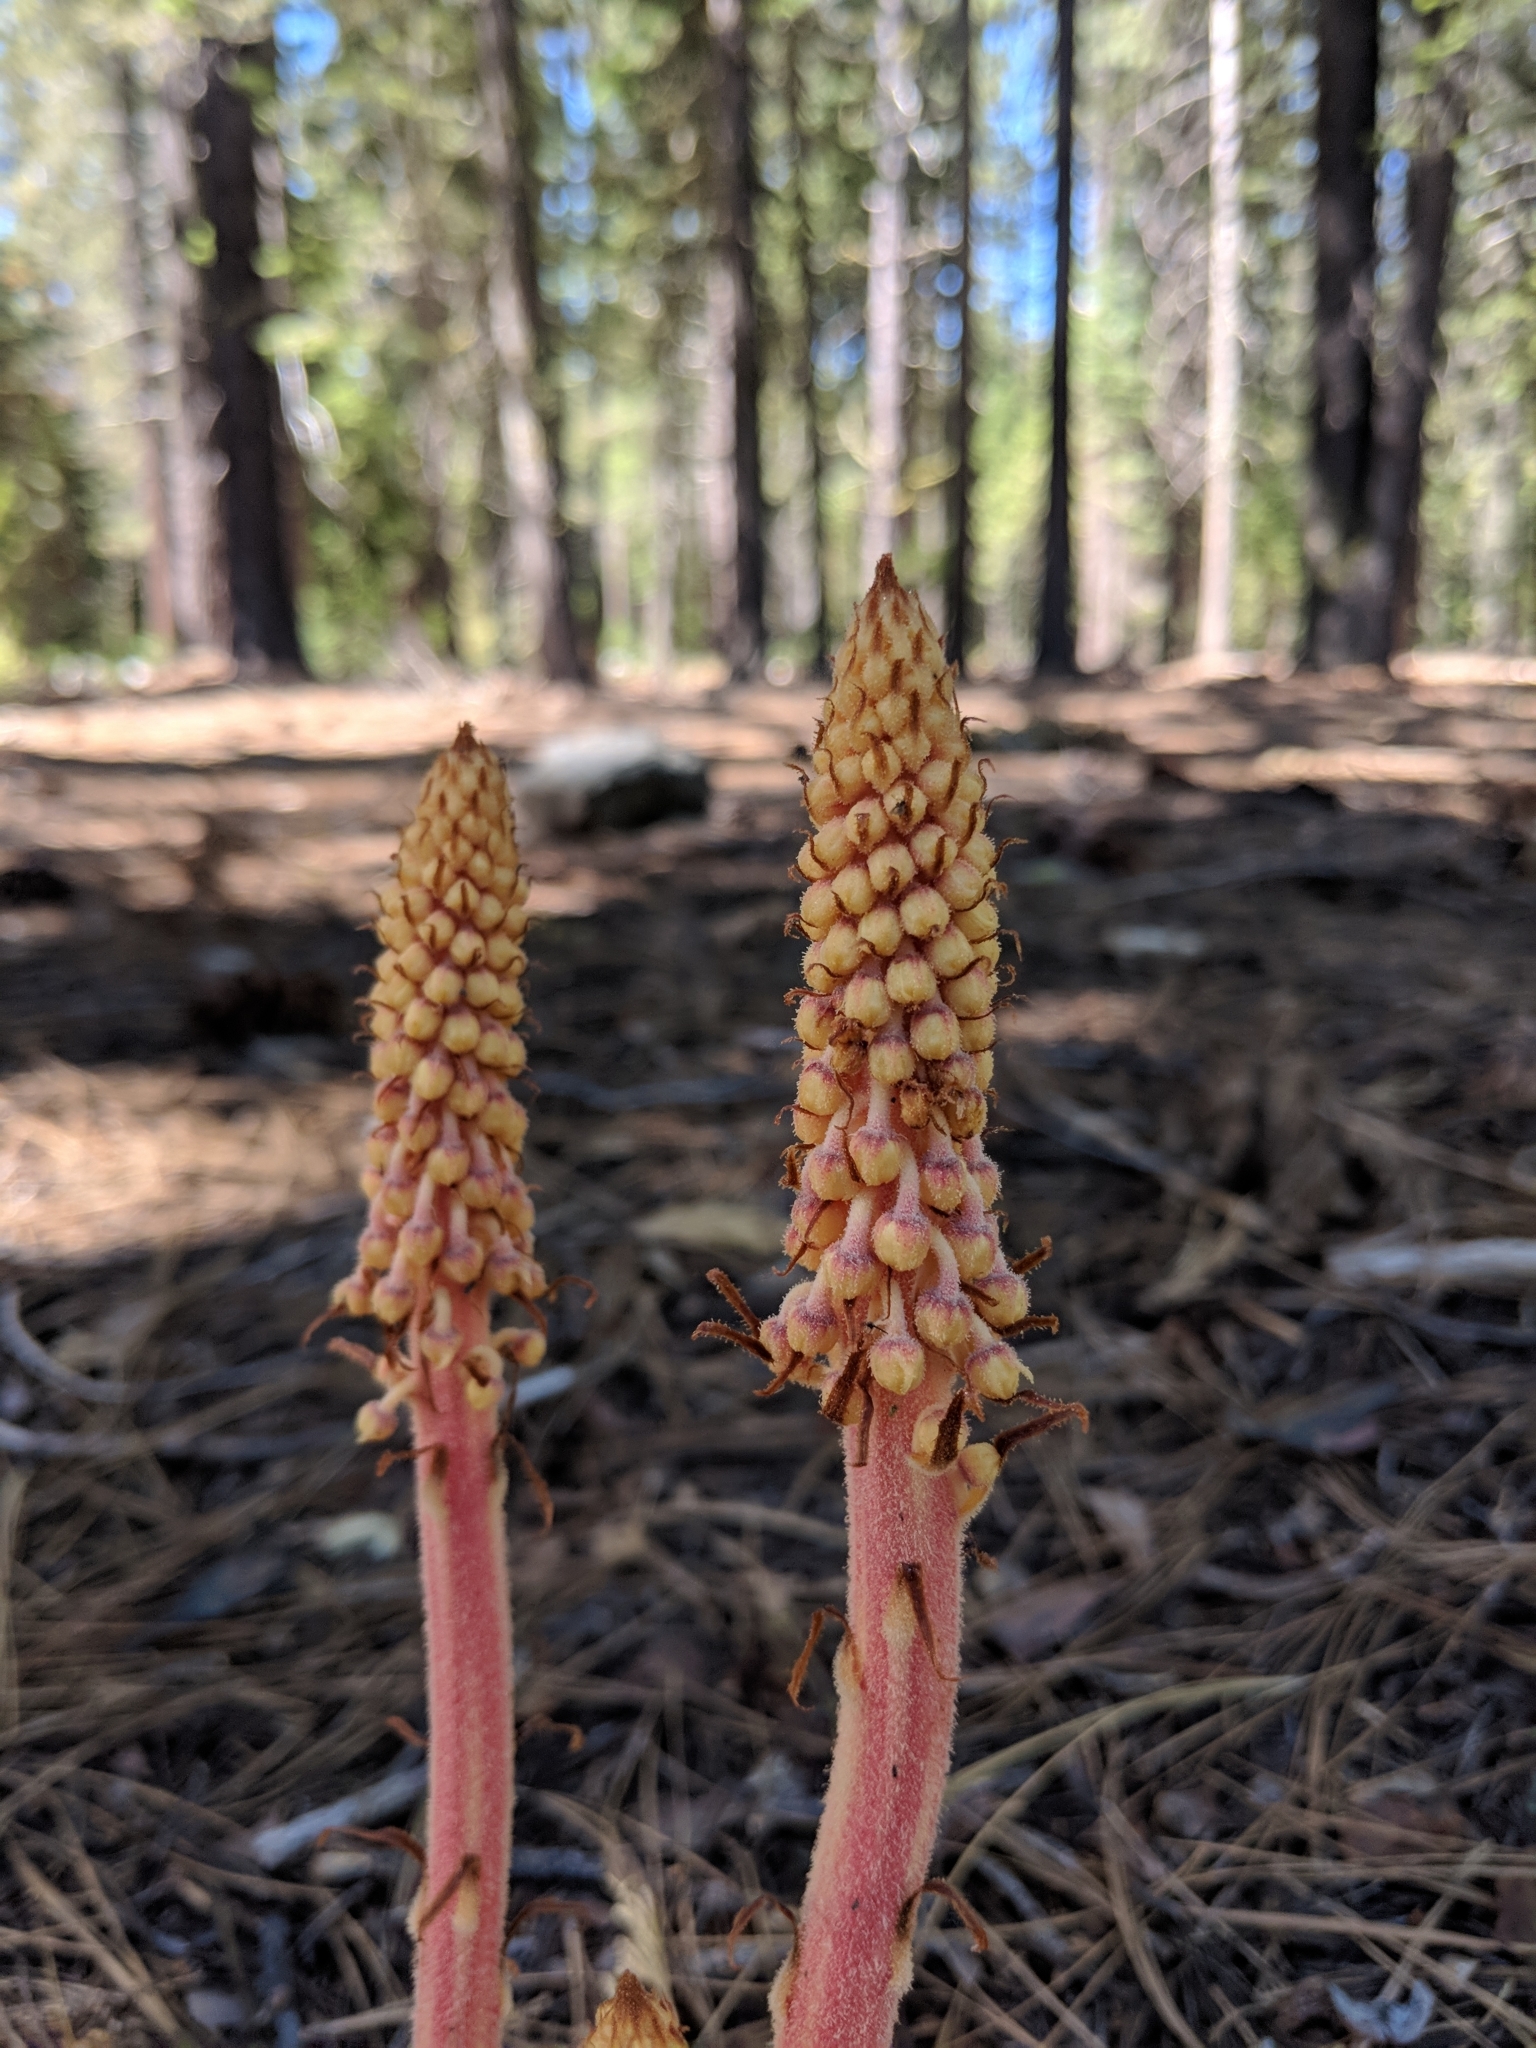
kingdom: Plantae
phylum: Tracheophyta
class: Magnoliopsida
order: Ericales
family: Ericaceae
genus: Pterospora
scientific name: Pterospora andromedea
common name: Giant bird's-nest
